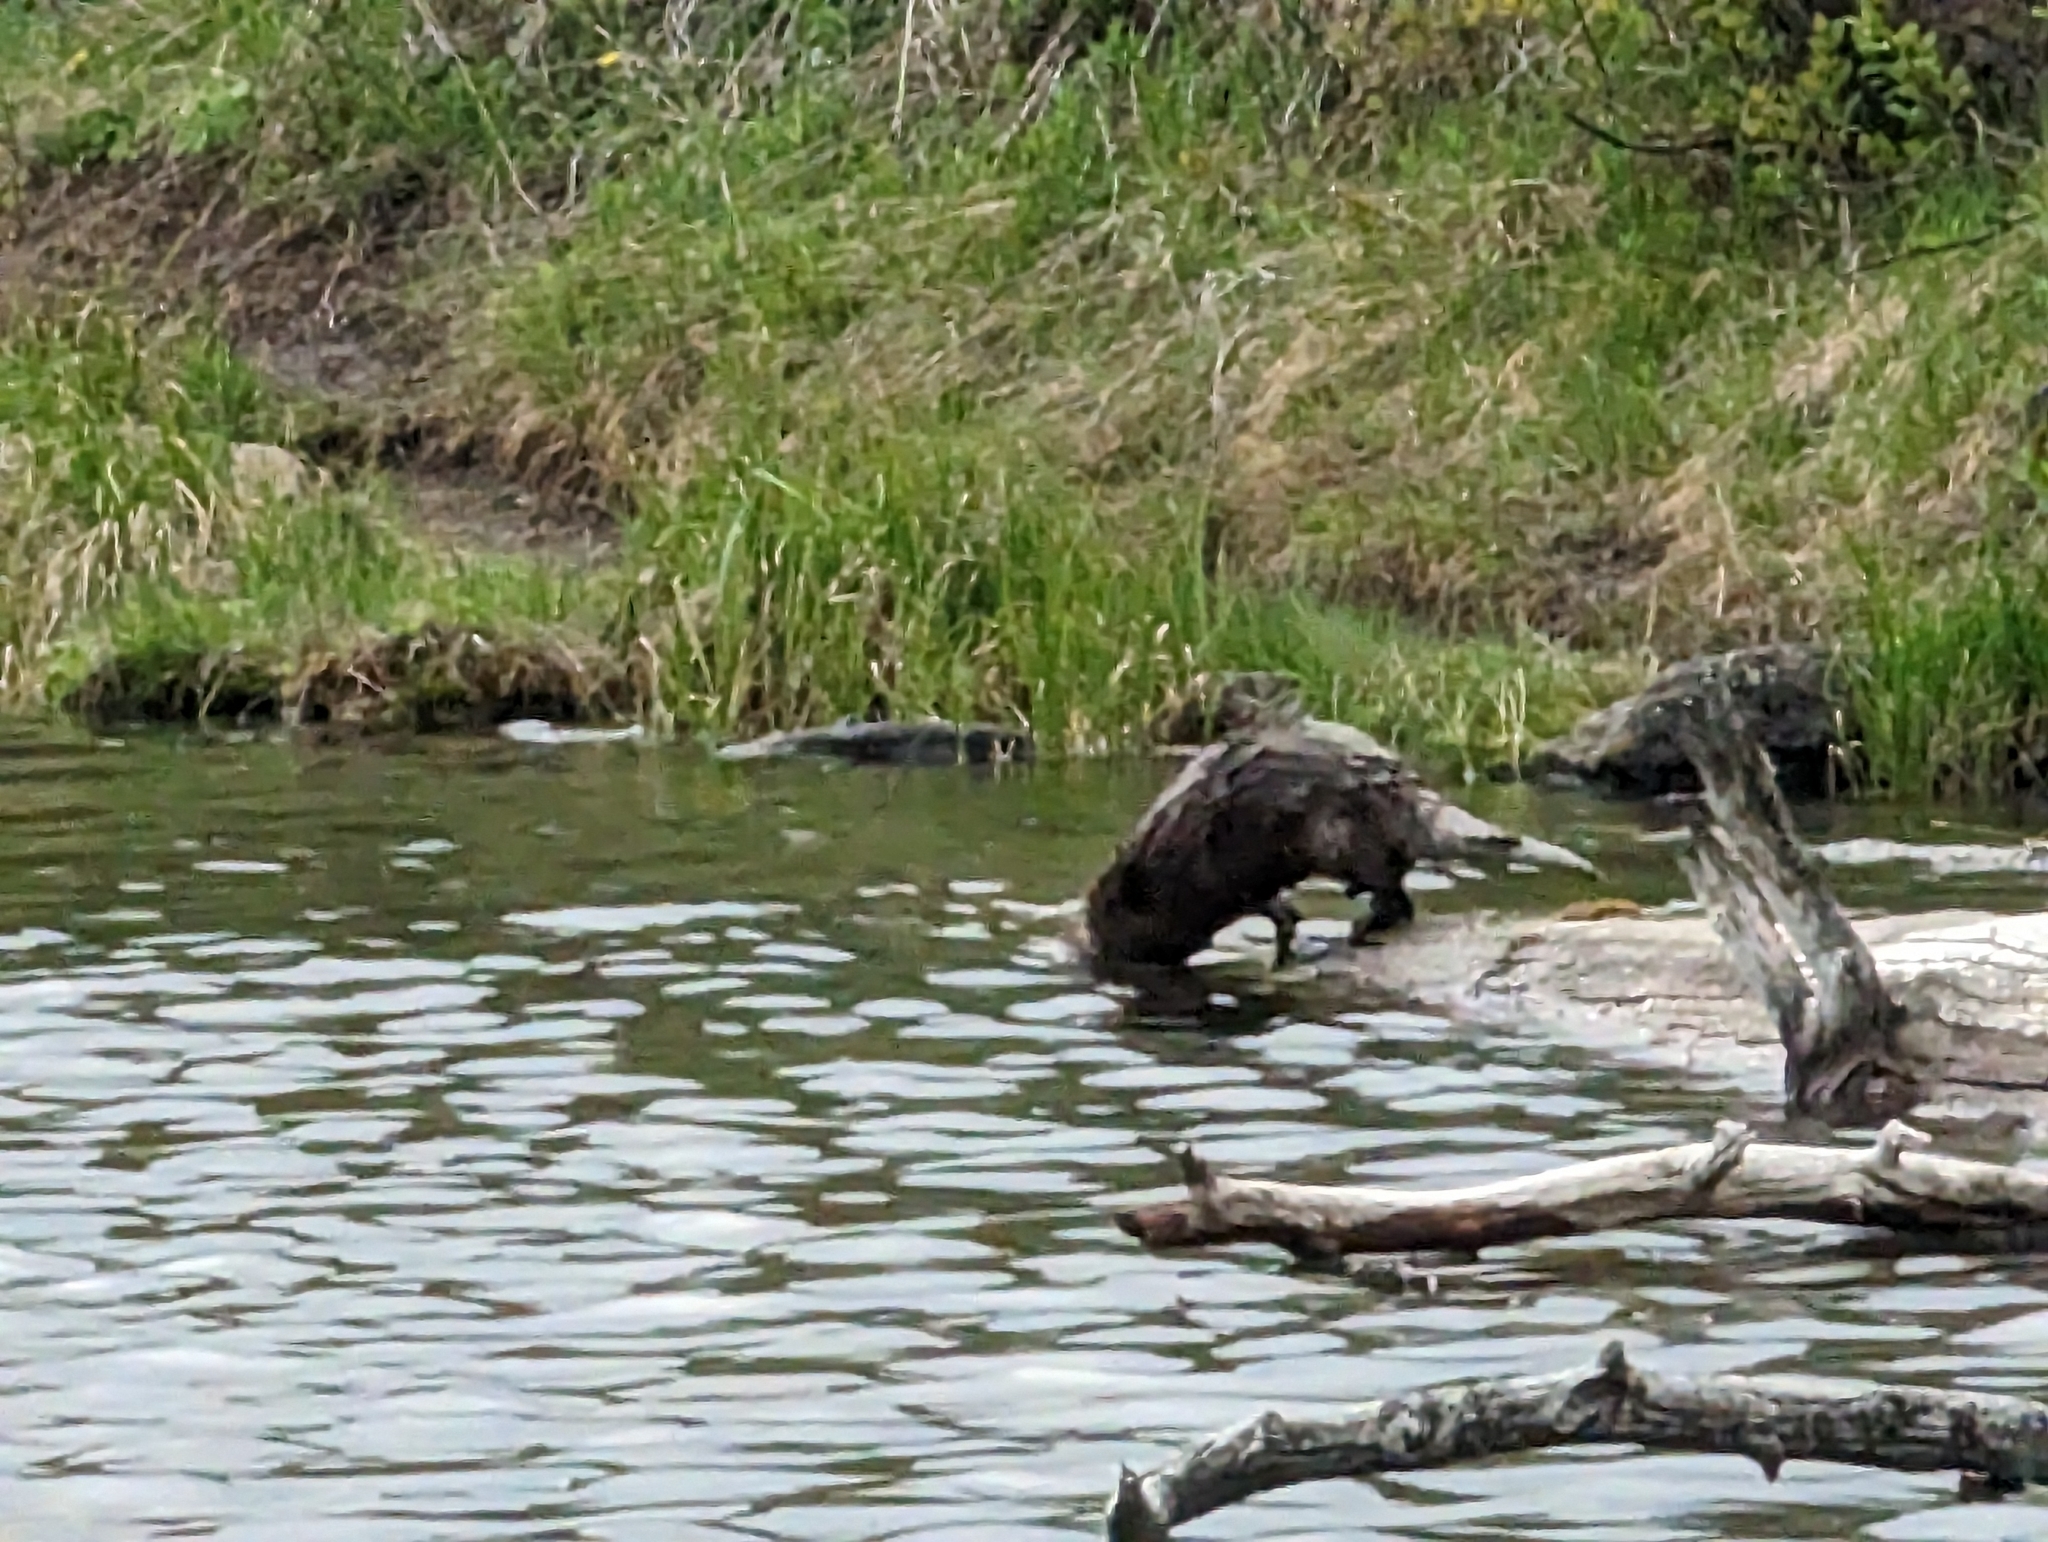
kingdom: Animalia
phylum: Chordata
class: Mammalia
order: Carnivora
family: Mustelidae
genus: Lontra
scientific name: Lontra canadensis
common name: North american river otter
